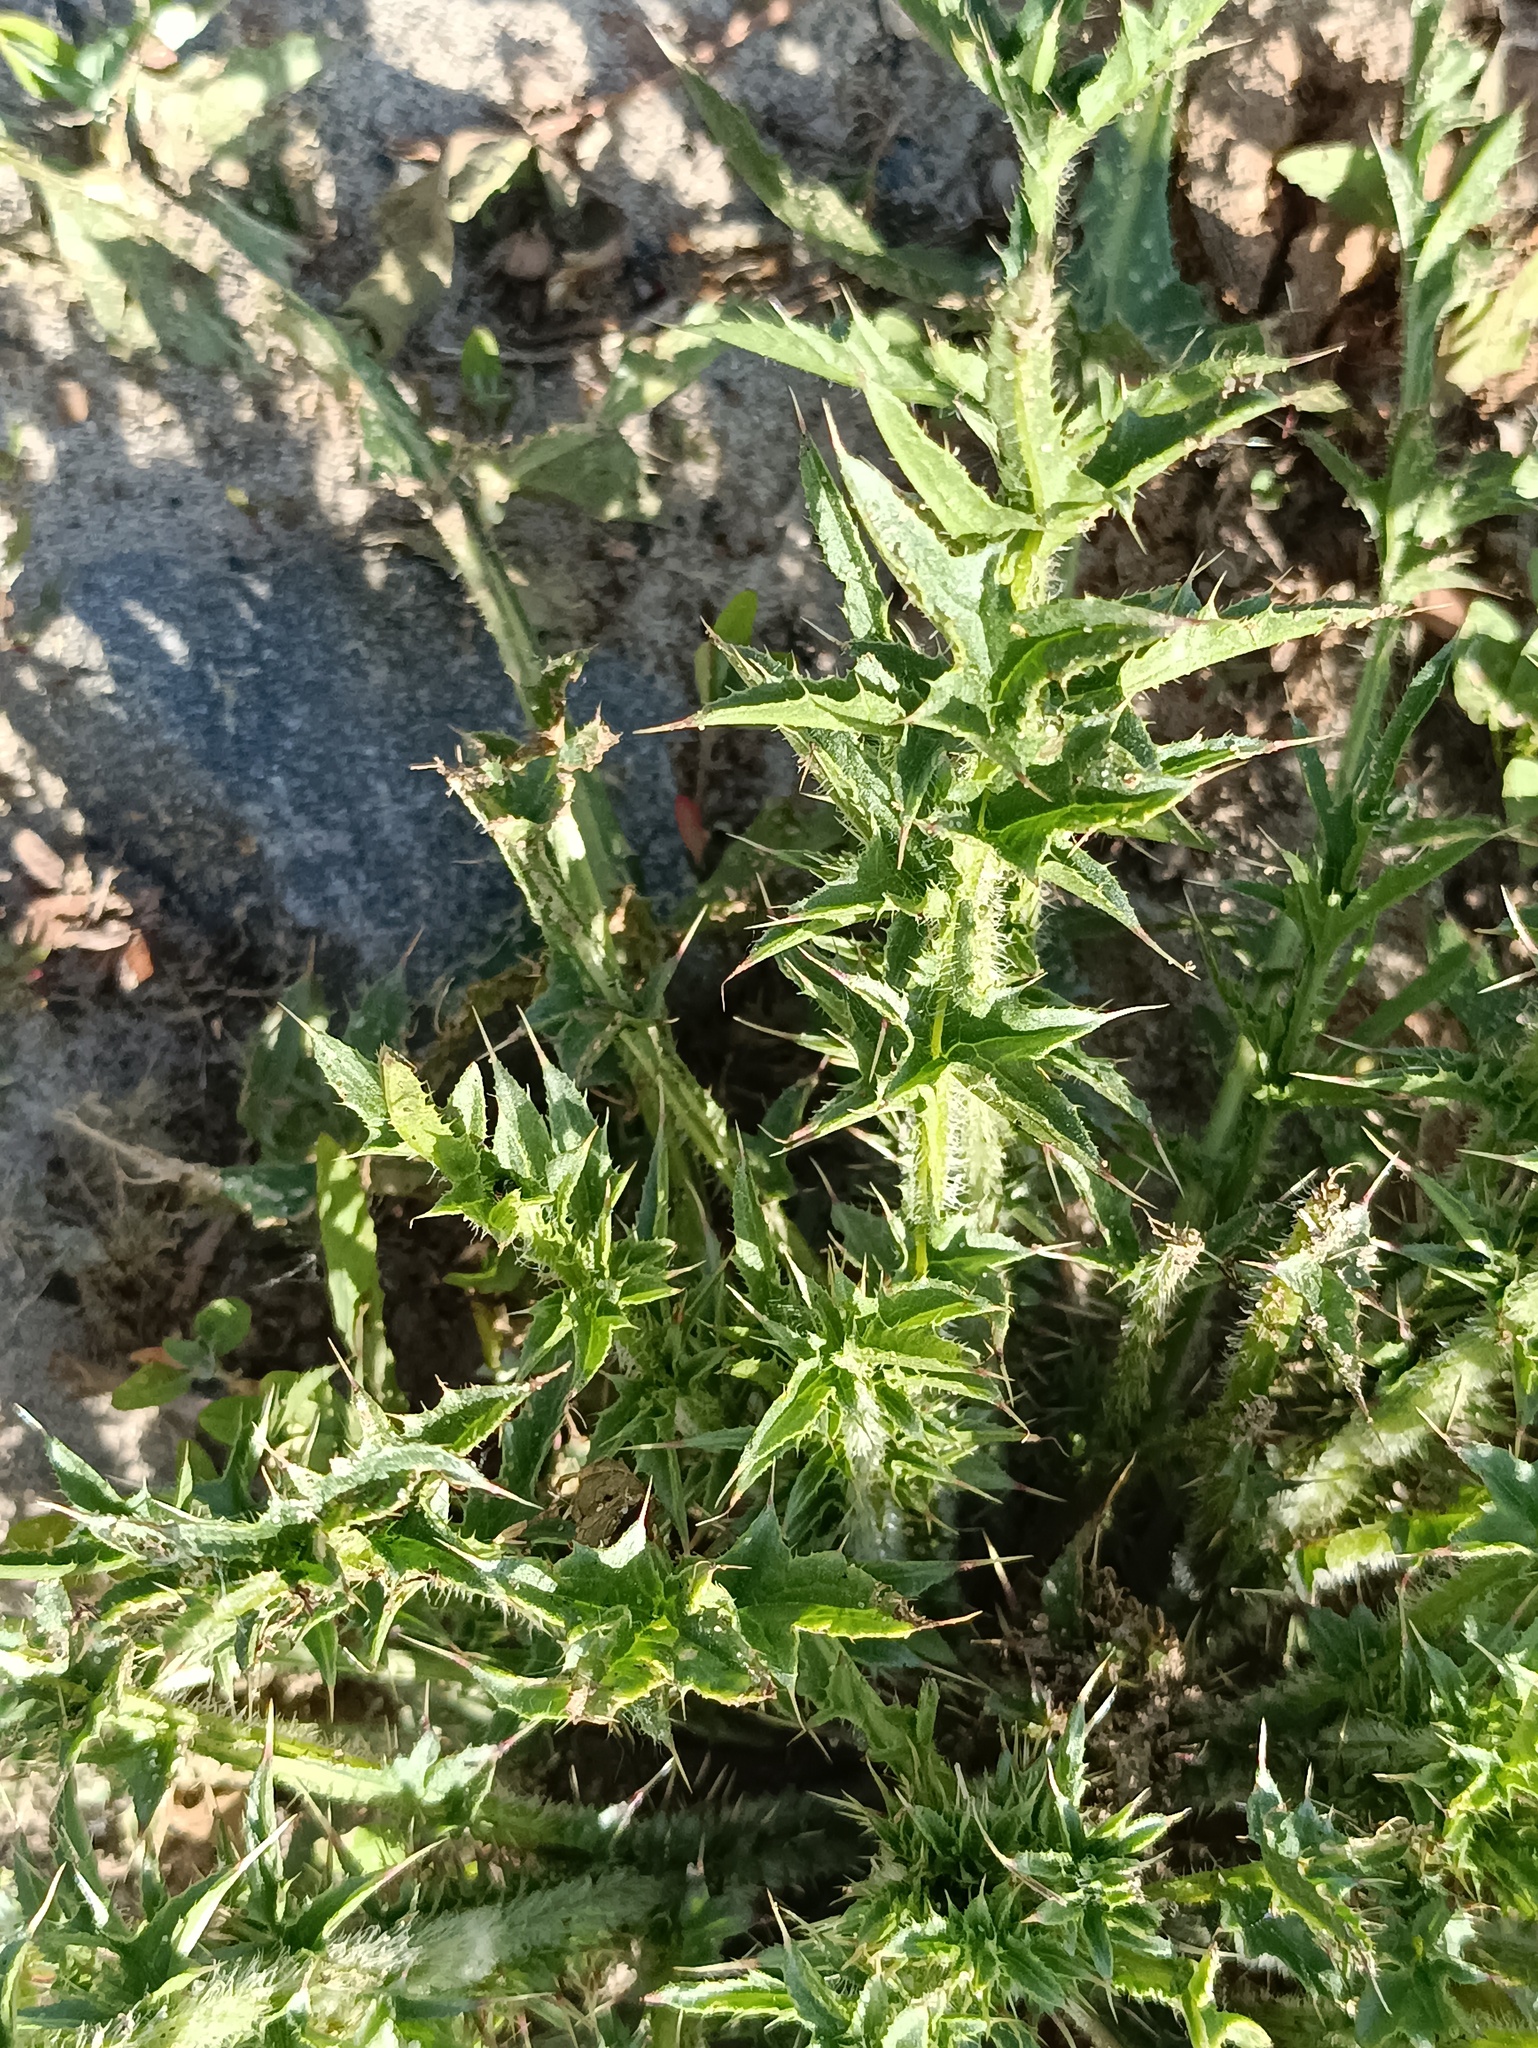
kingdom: Plantae
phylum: Tracheophyta
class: Magnoliopsida
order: Asterales
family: Asteraceae
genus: Carduus
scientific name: Carduus acanthoides
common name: Plumeless thistle
